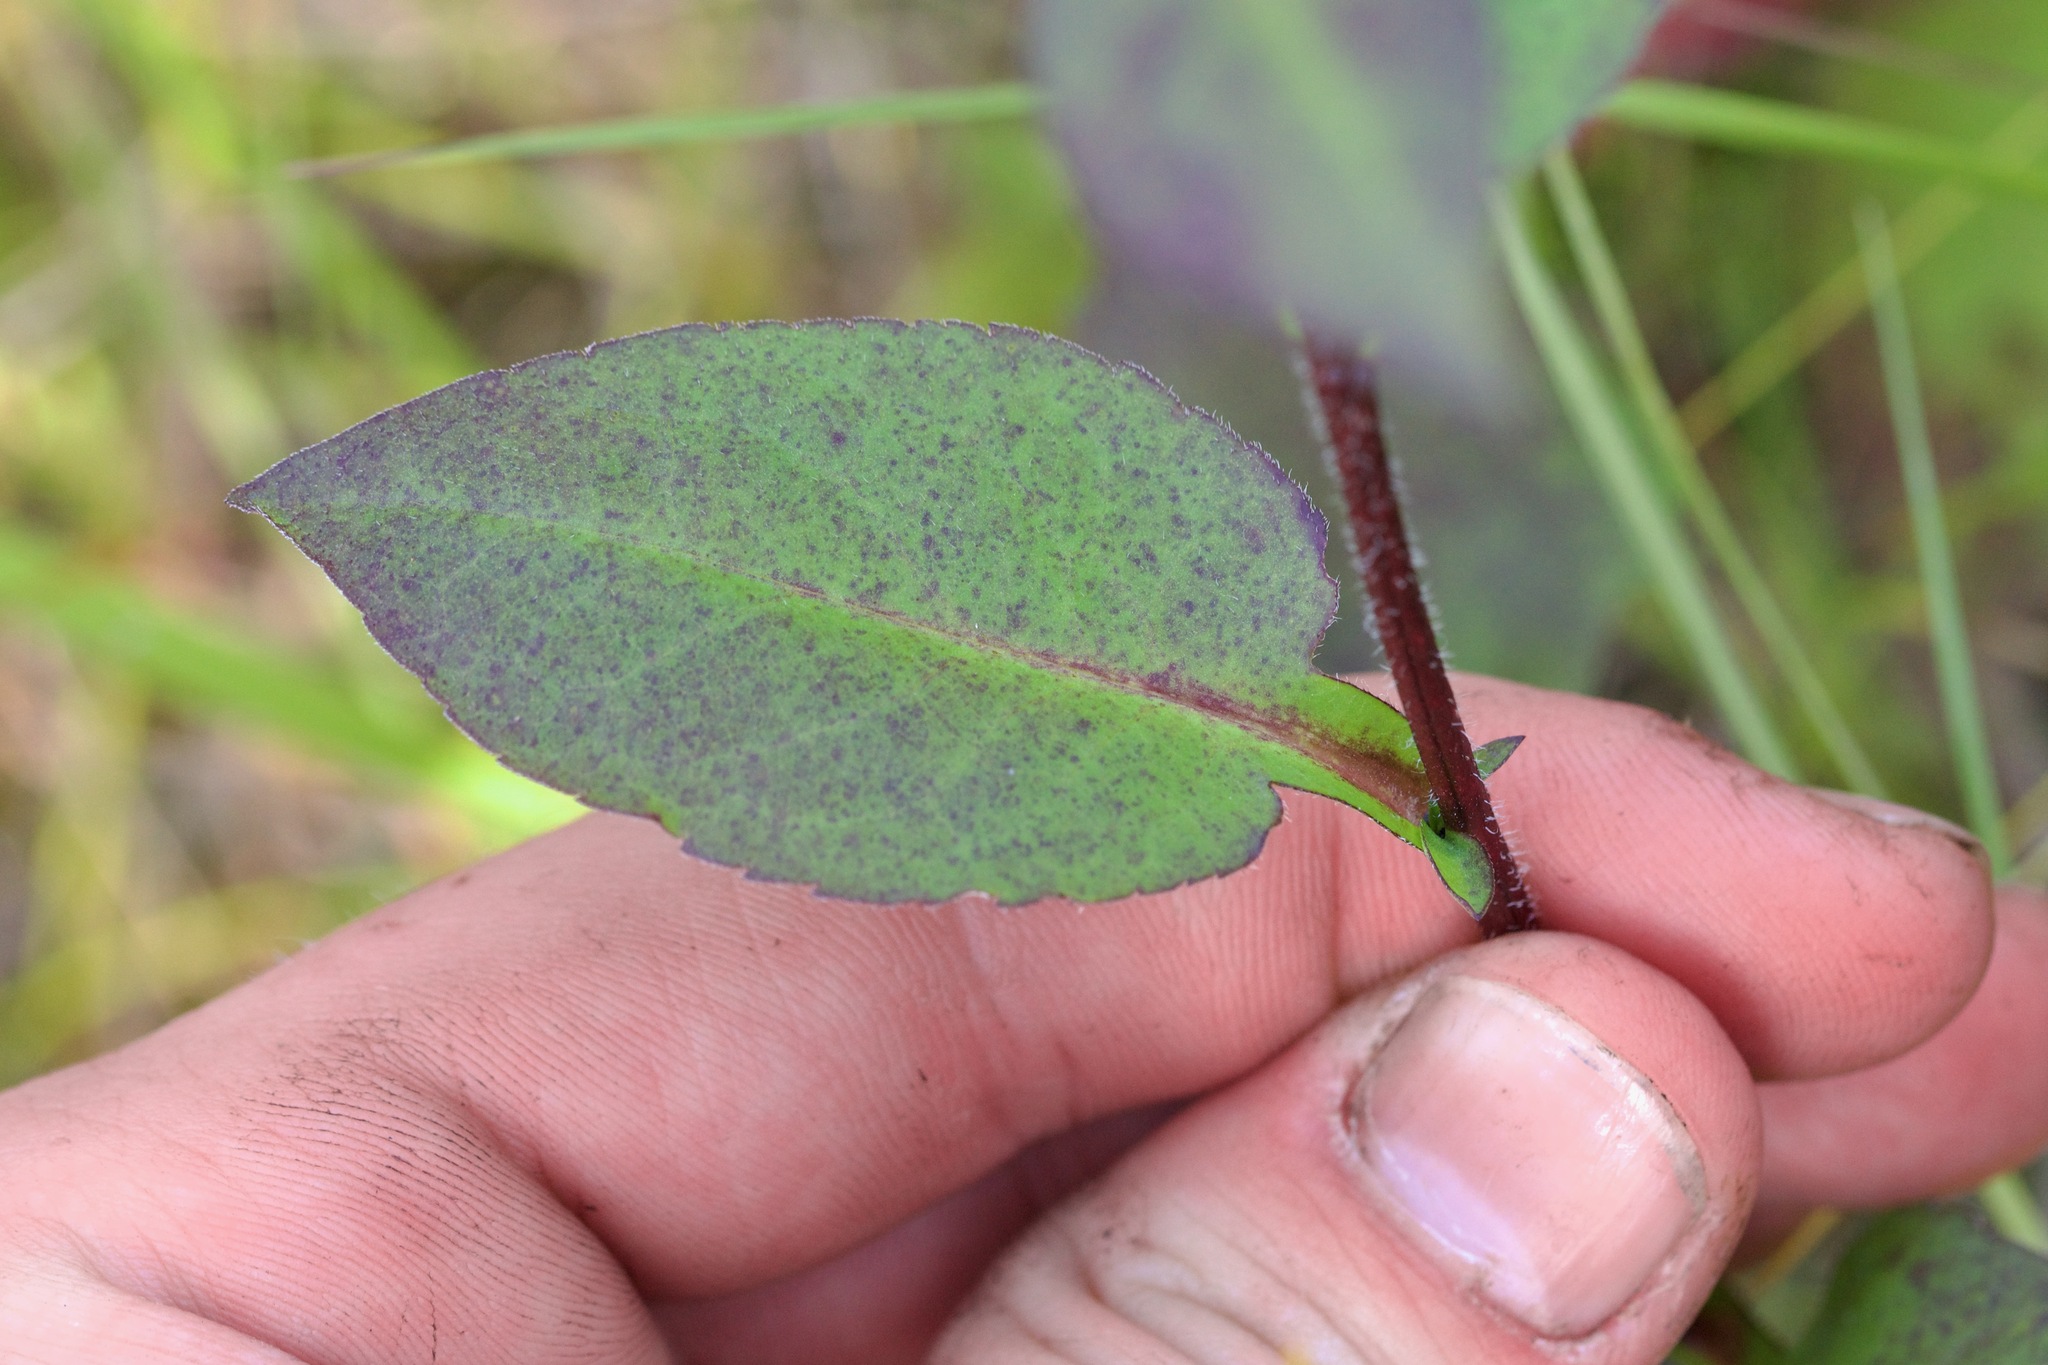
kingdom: Plantae
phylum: Tracheophyta
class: Magnoliopsida
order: Asterales
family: Asteraceae
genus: Symphyotrichum
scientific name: Symphyotrichum ciliolatum
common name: Fringed blue aster
